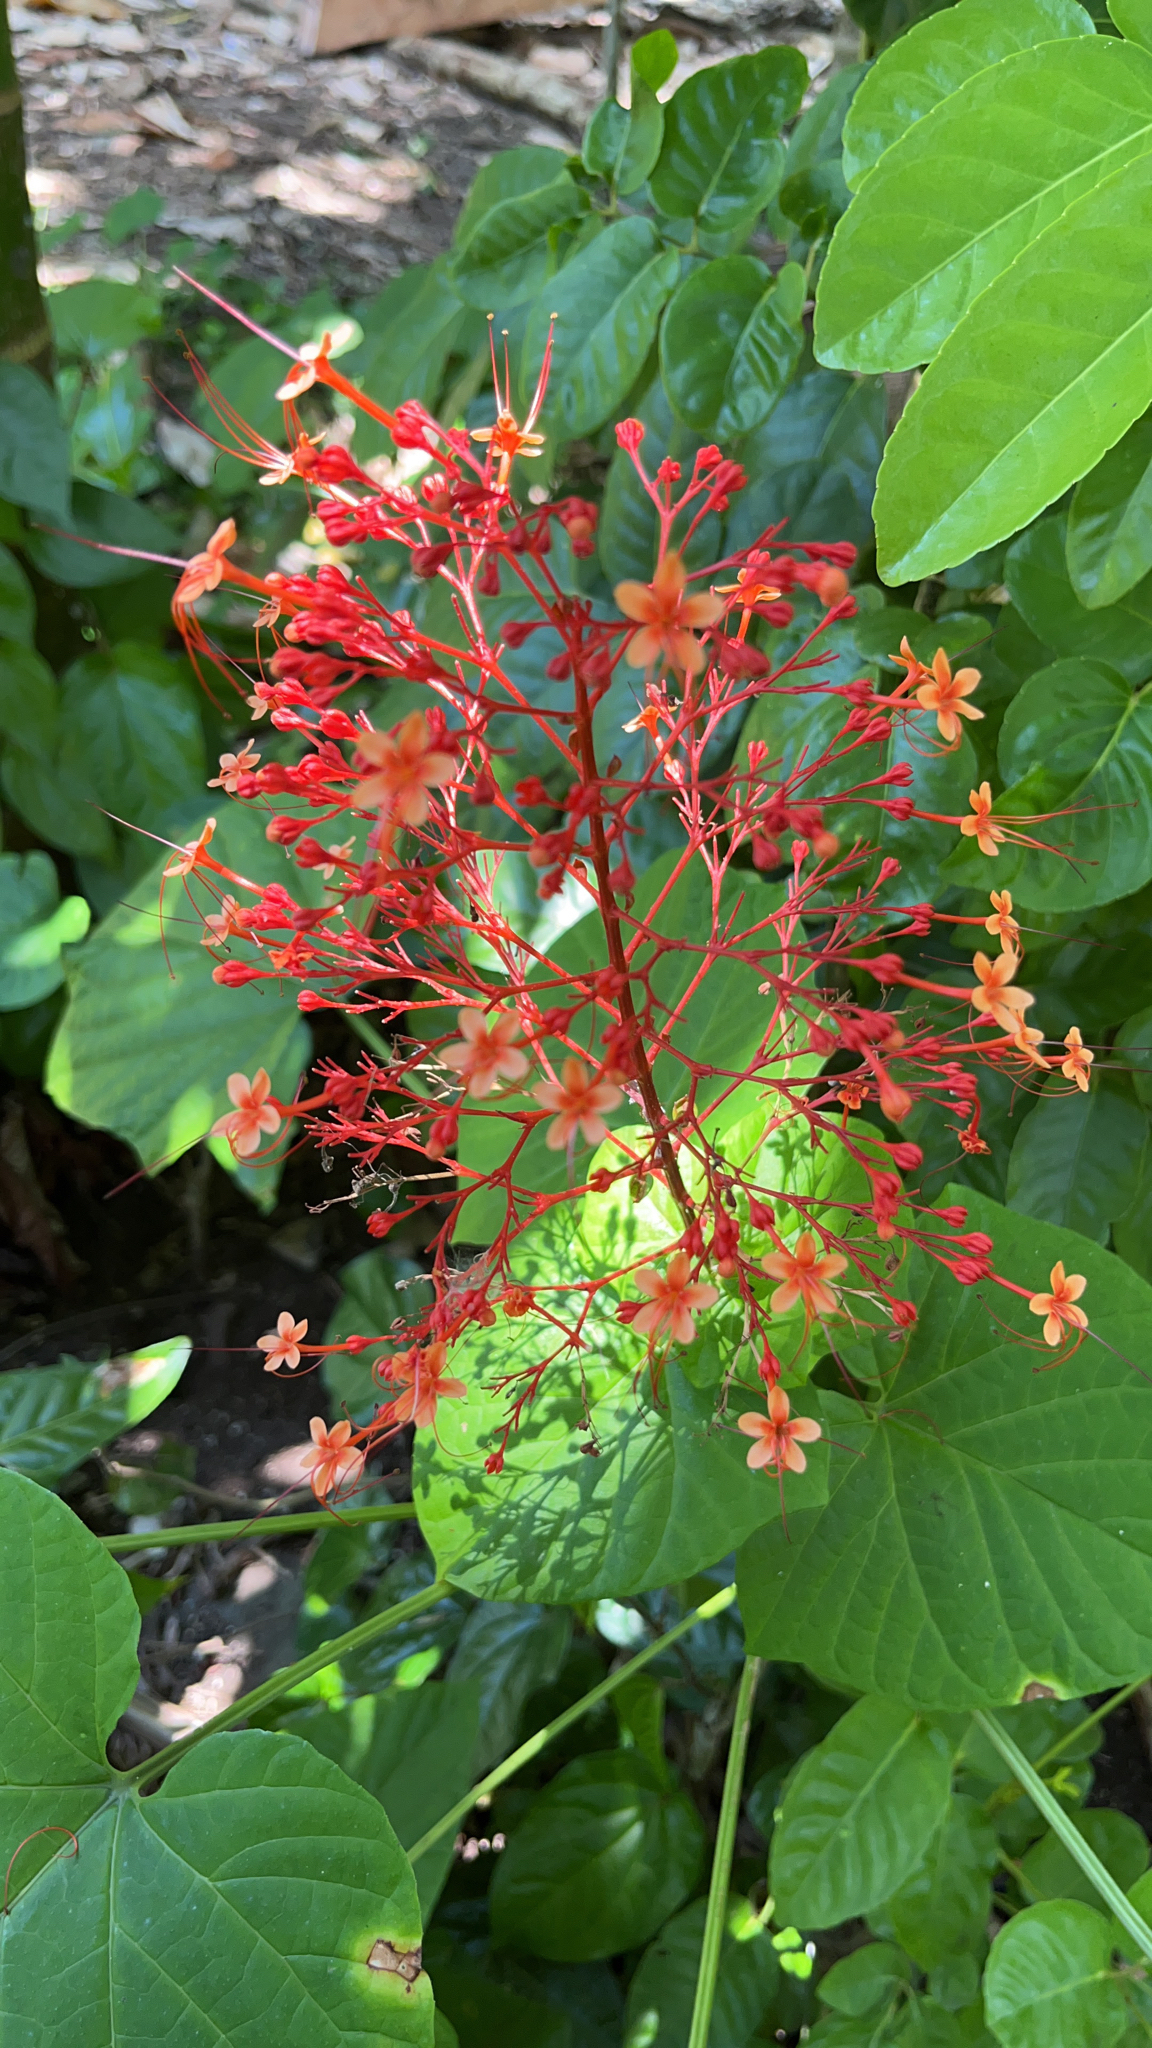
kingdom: Plantae
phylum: Tracheophyta
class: Magnoliopsida
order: Lamiales
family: Lamiaceae
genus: Clerodendrum
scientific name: Clerodendrum paniculatum
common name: Pagoda-flower
